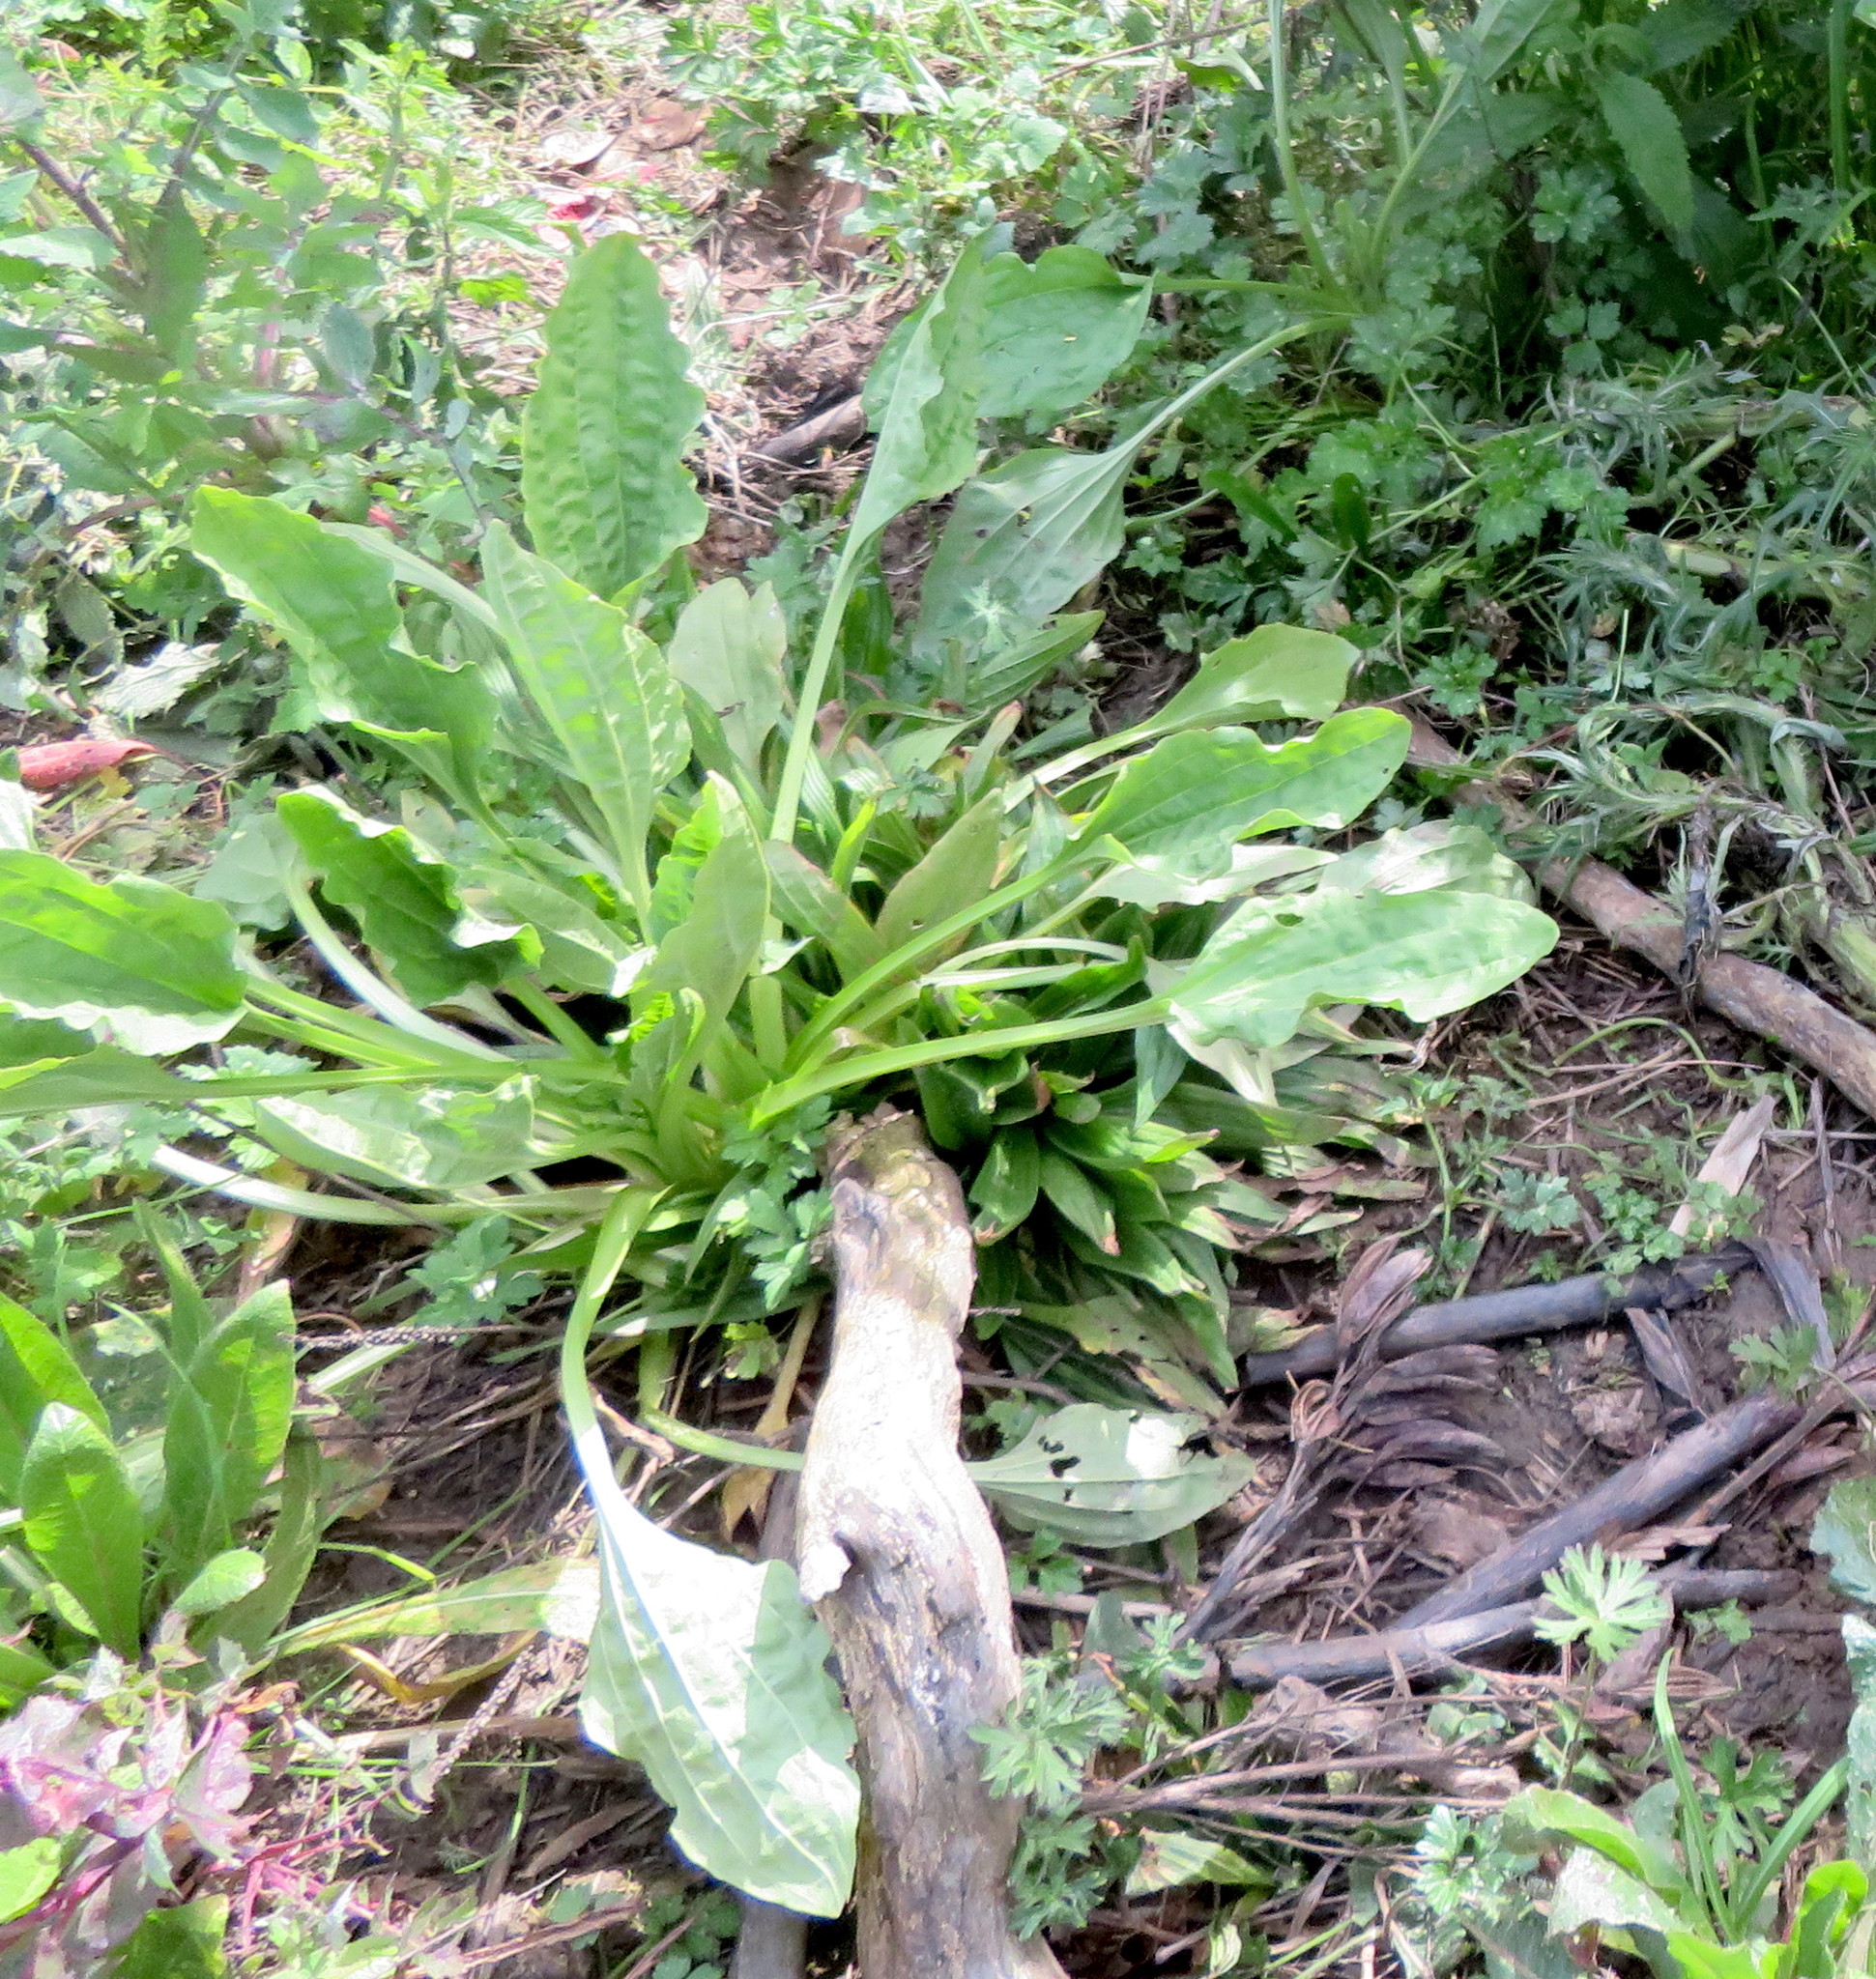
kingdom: Plantae
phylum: Tracheophyta
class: Magnoliopsida
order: Lamiales
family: Plantaginaceae
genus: Plantago
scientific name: Plantago major
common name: Common plantain
